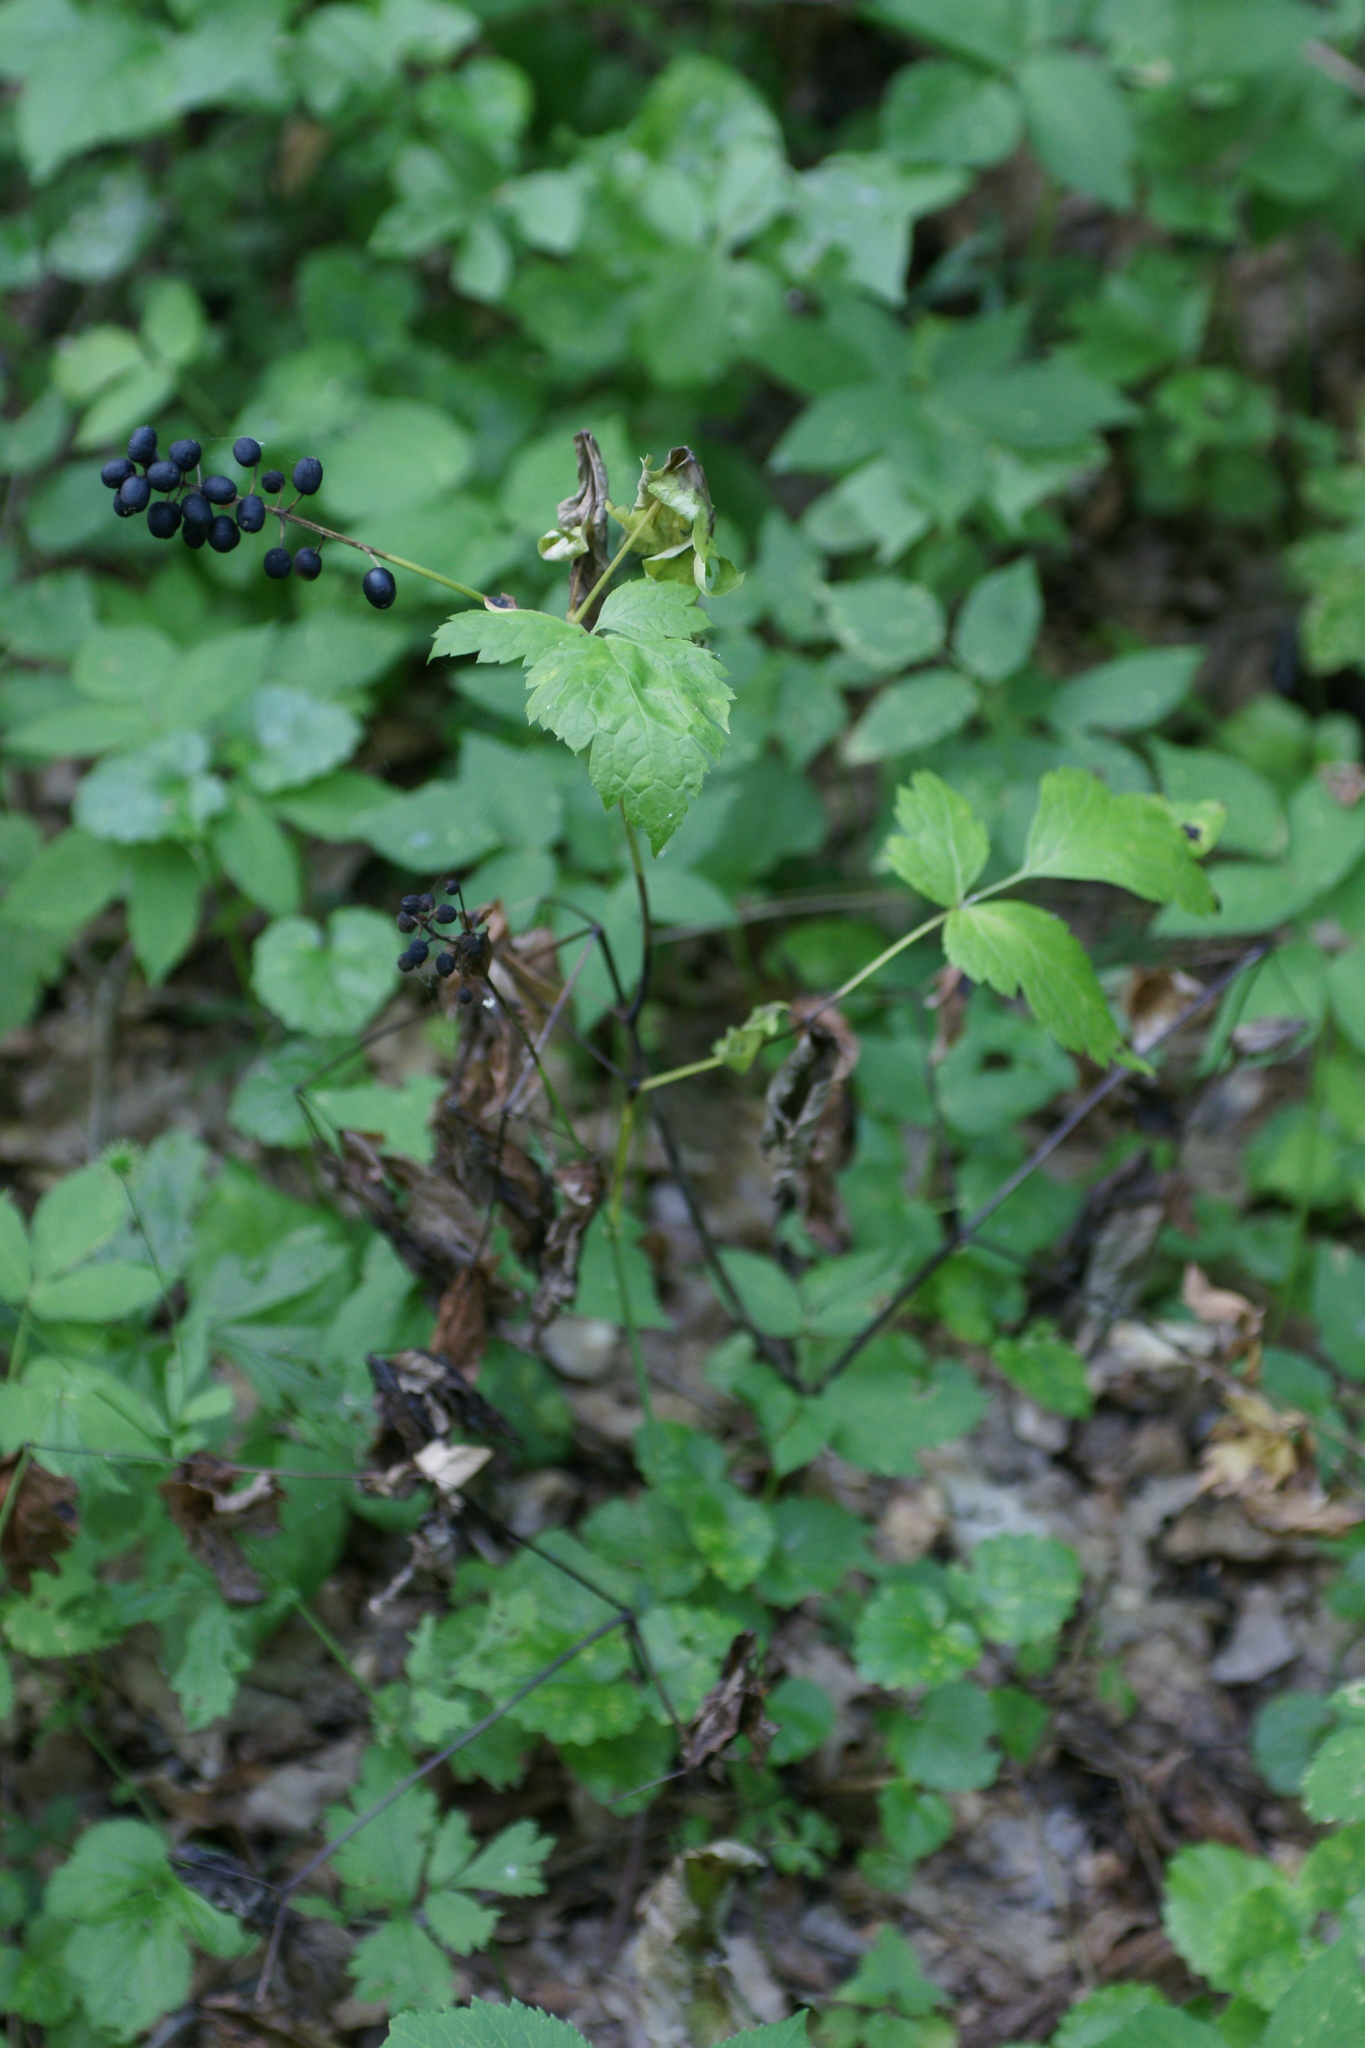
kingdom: Plantae
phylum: Tracheophyta
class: Magnoliopsida
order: Ranunculales
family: Ranunculaceae
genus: Actaea
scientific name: Actaea spicata
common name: Baneberry
